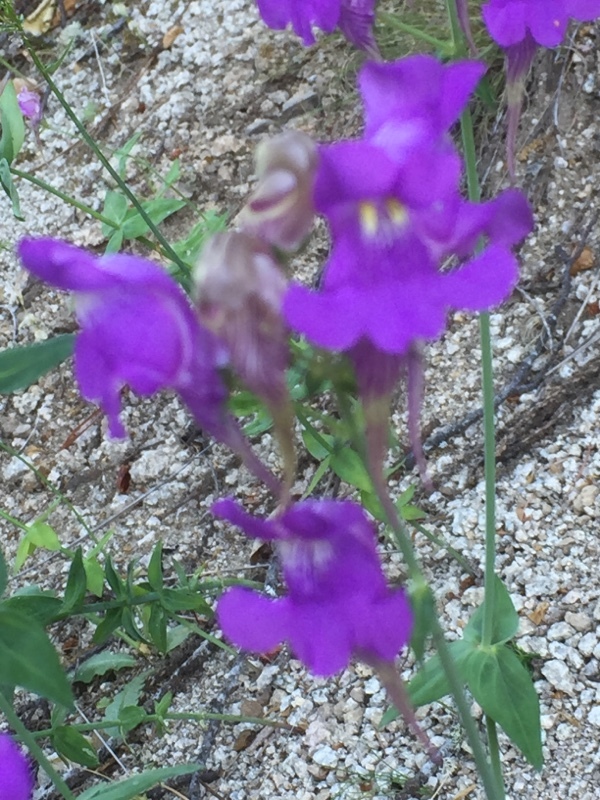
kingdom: Plantae
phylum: Tracheophyta
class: Magnoliopsida
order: Lamiales
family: Plantaginaceae
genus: Linaria
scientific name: Linaria triornithophora
